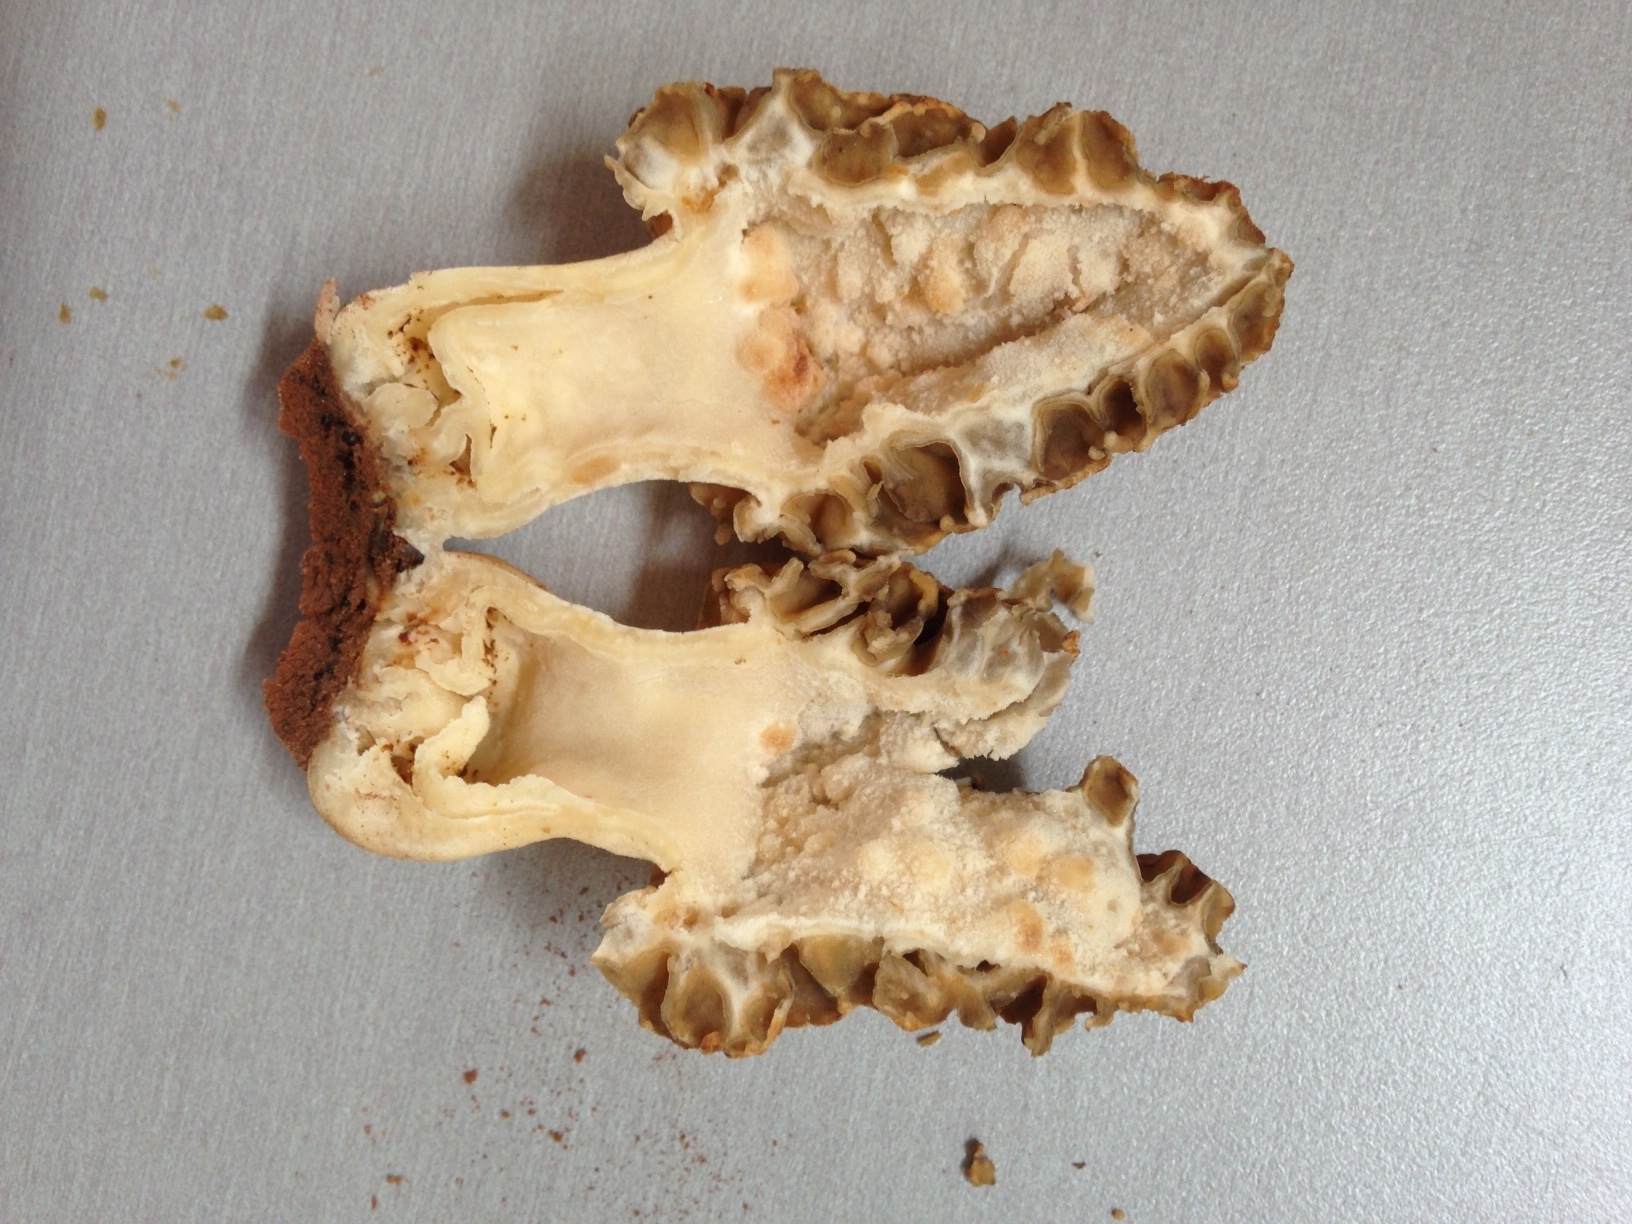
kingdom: Fungi
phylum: Ascomycota
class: Pezizomycetes
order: Pezizales
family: Morchellaceae
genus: Morchella
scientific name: Morchella prava
